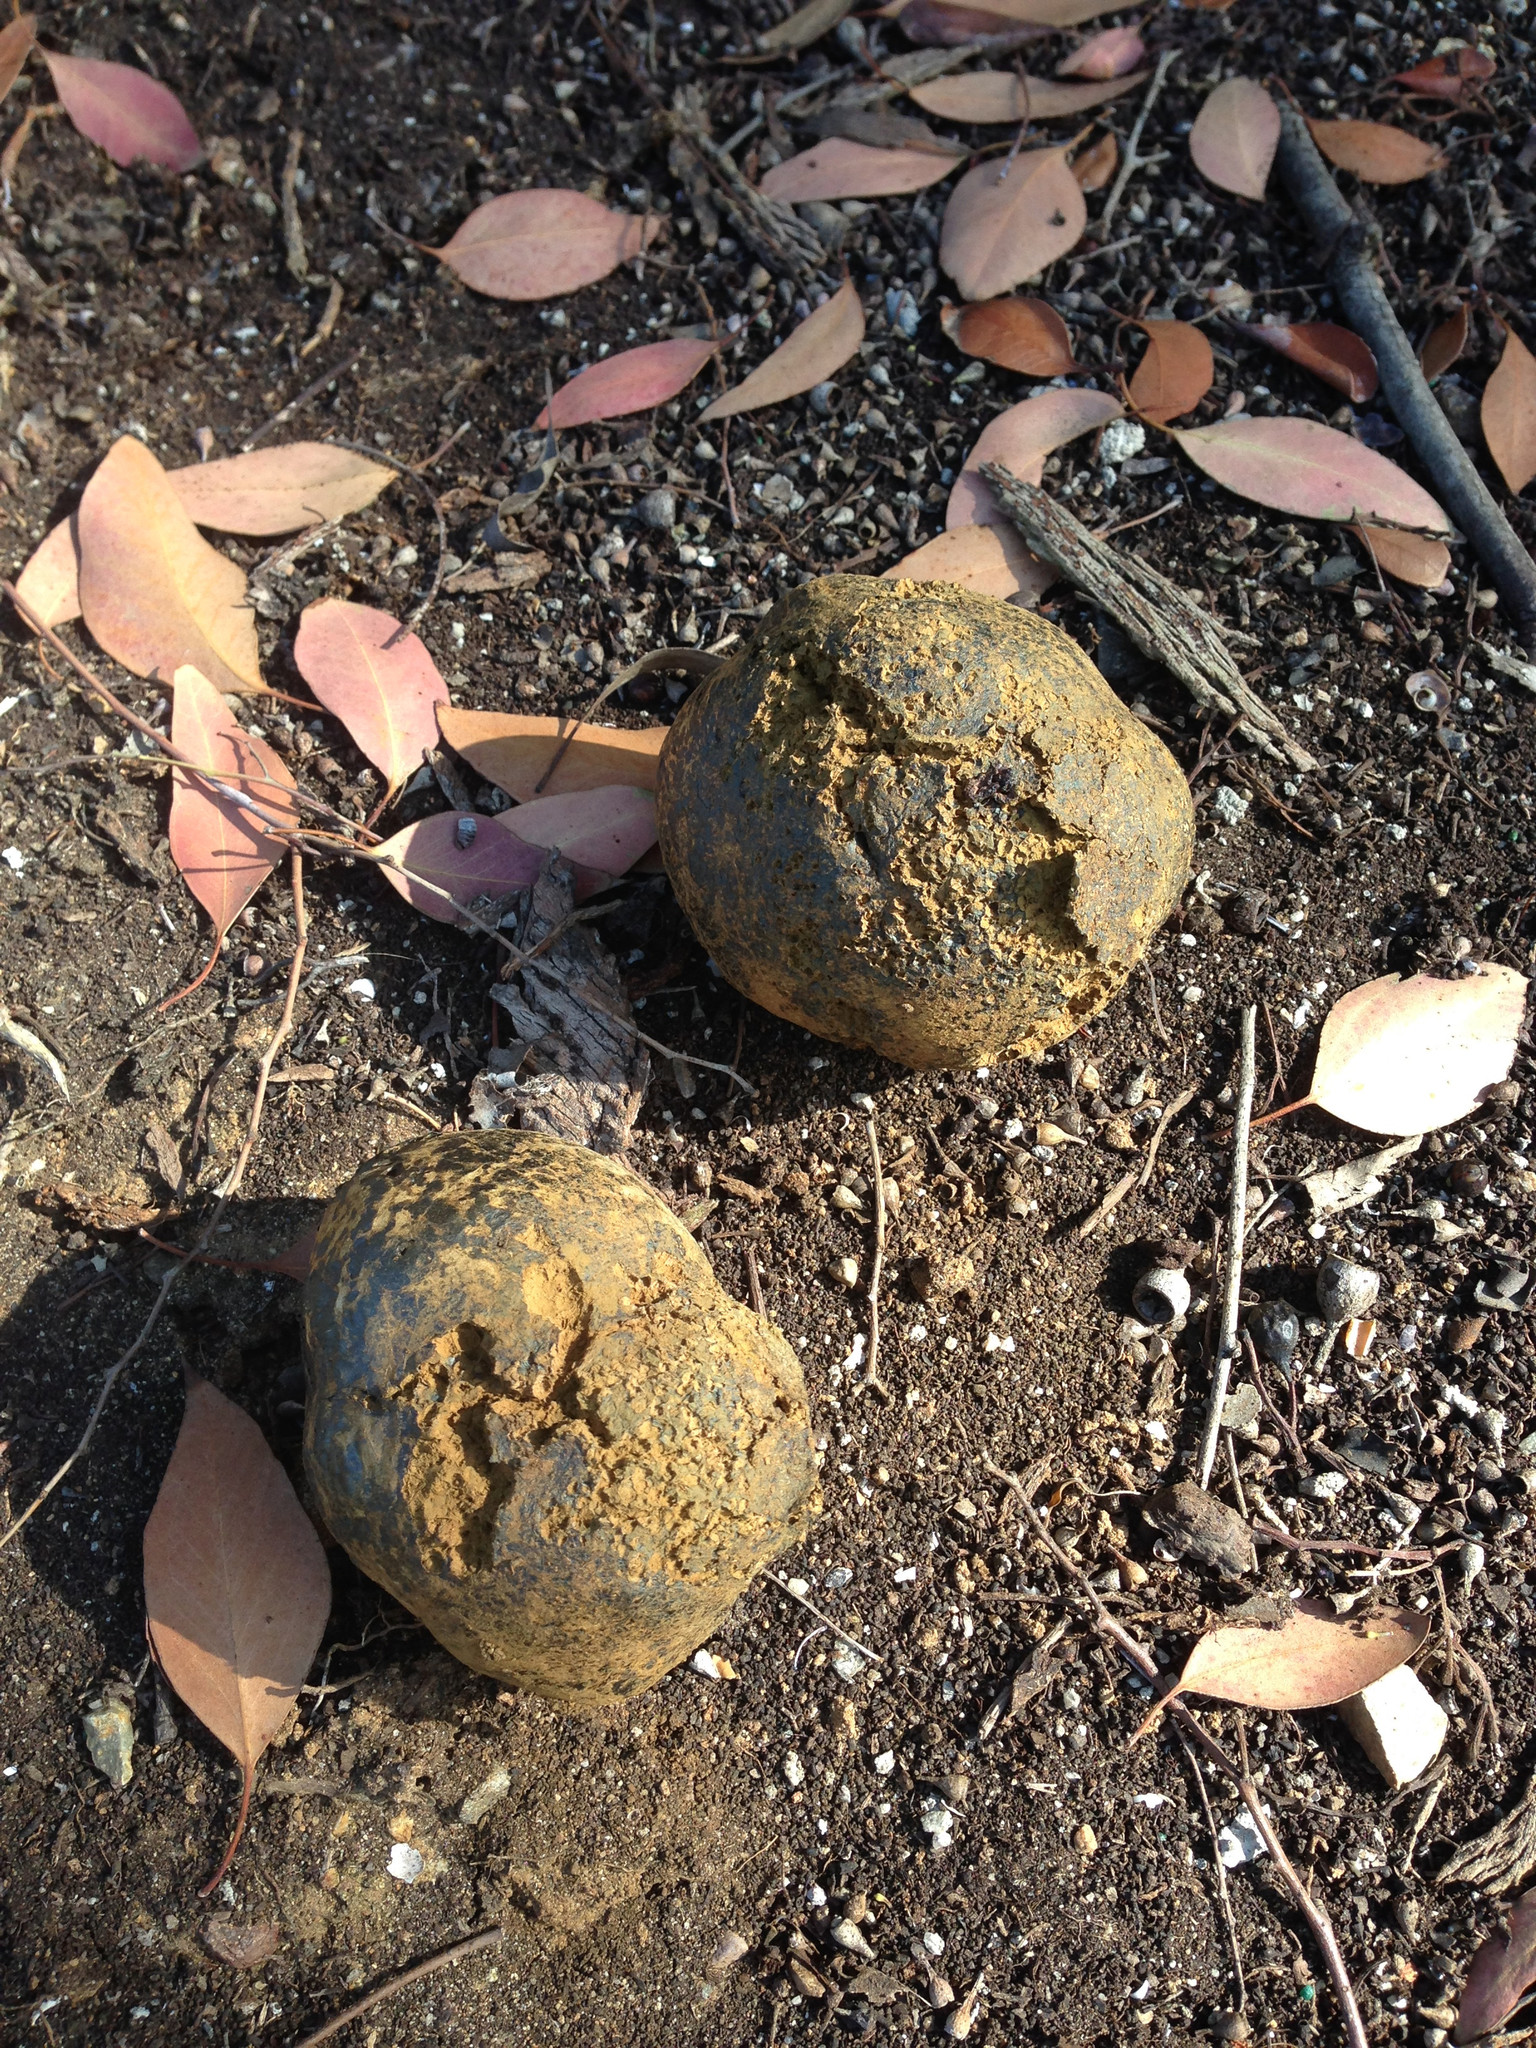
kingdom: Fungi
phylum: Basidiomycota
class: Agaricomycetes
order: Boletales
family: Sclerodermataceae
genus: Pisolithus
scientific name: Pisolithus arhizus
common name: Dyeball
